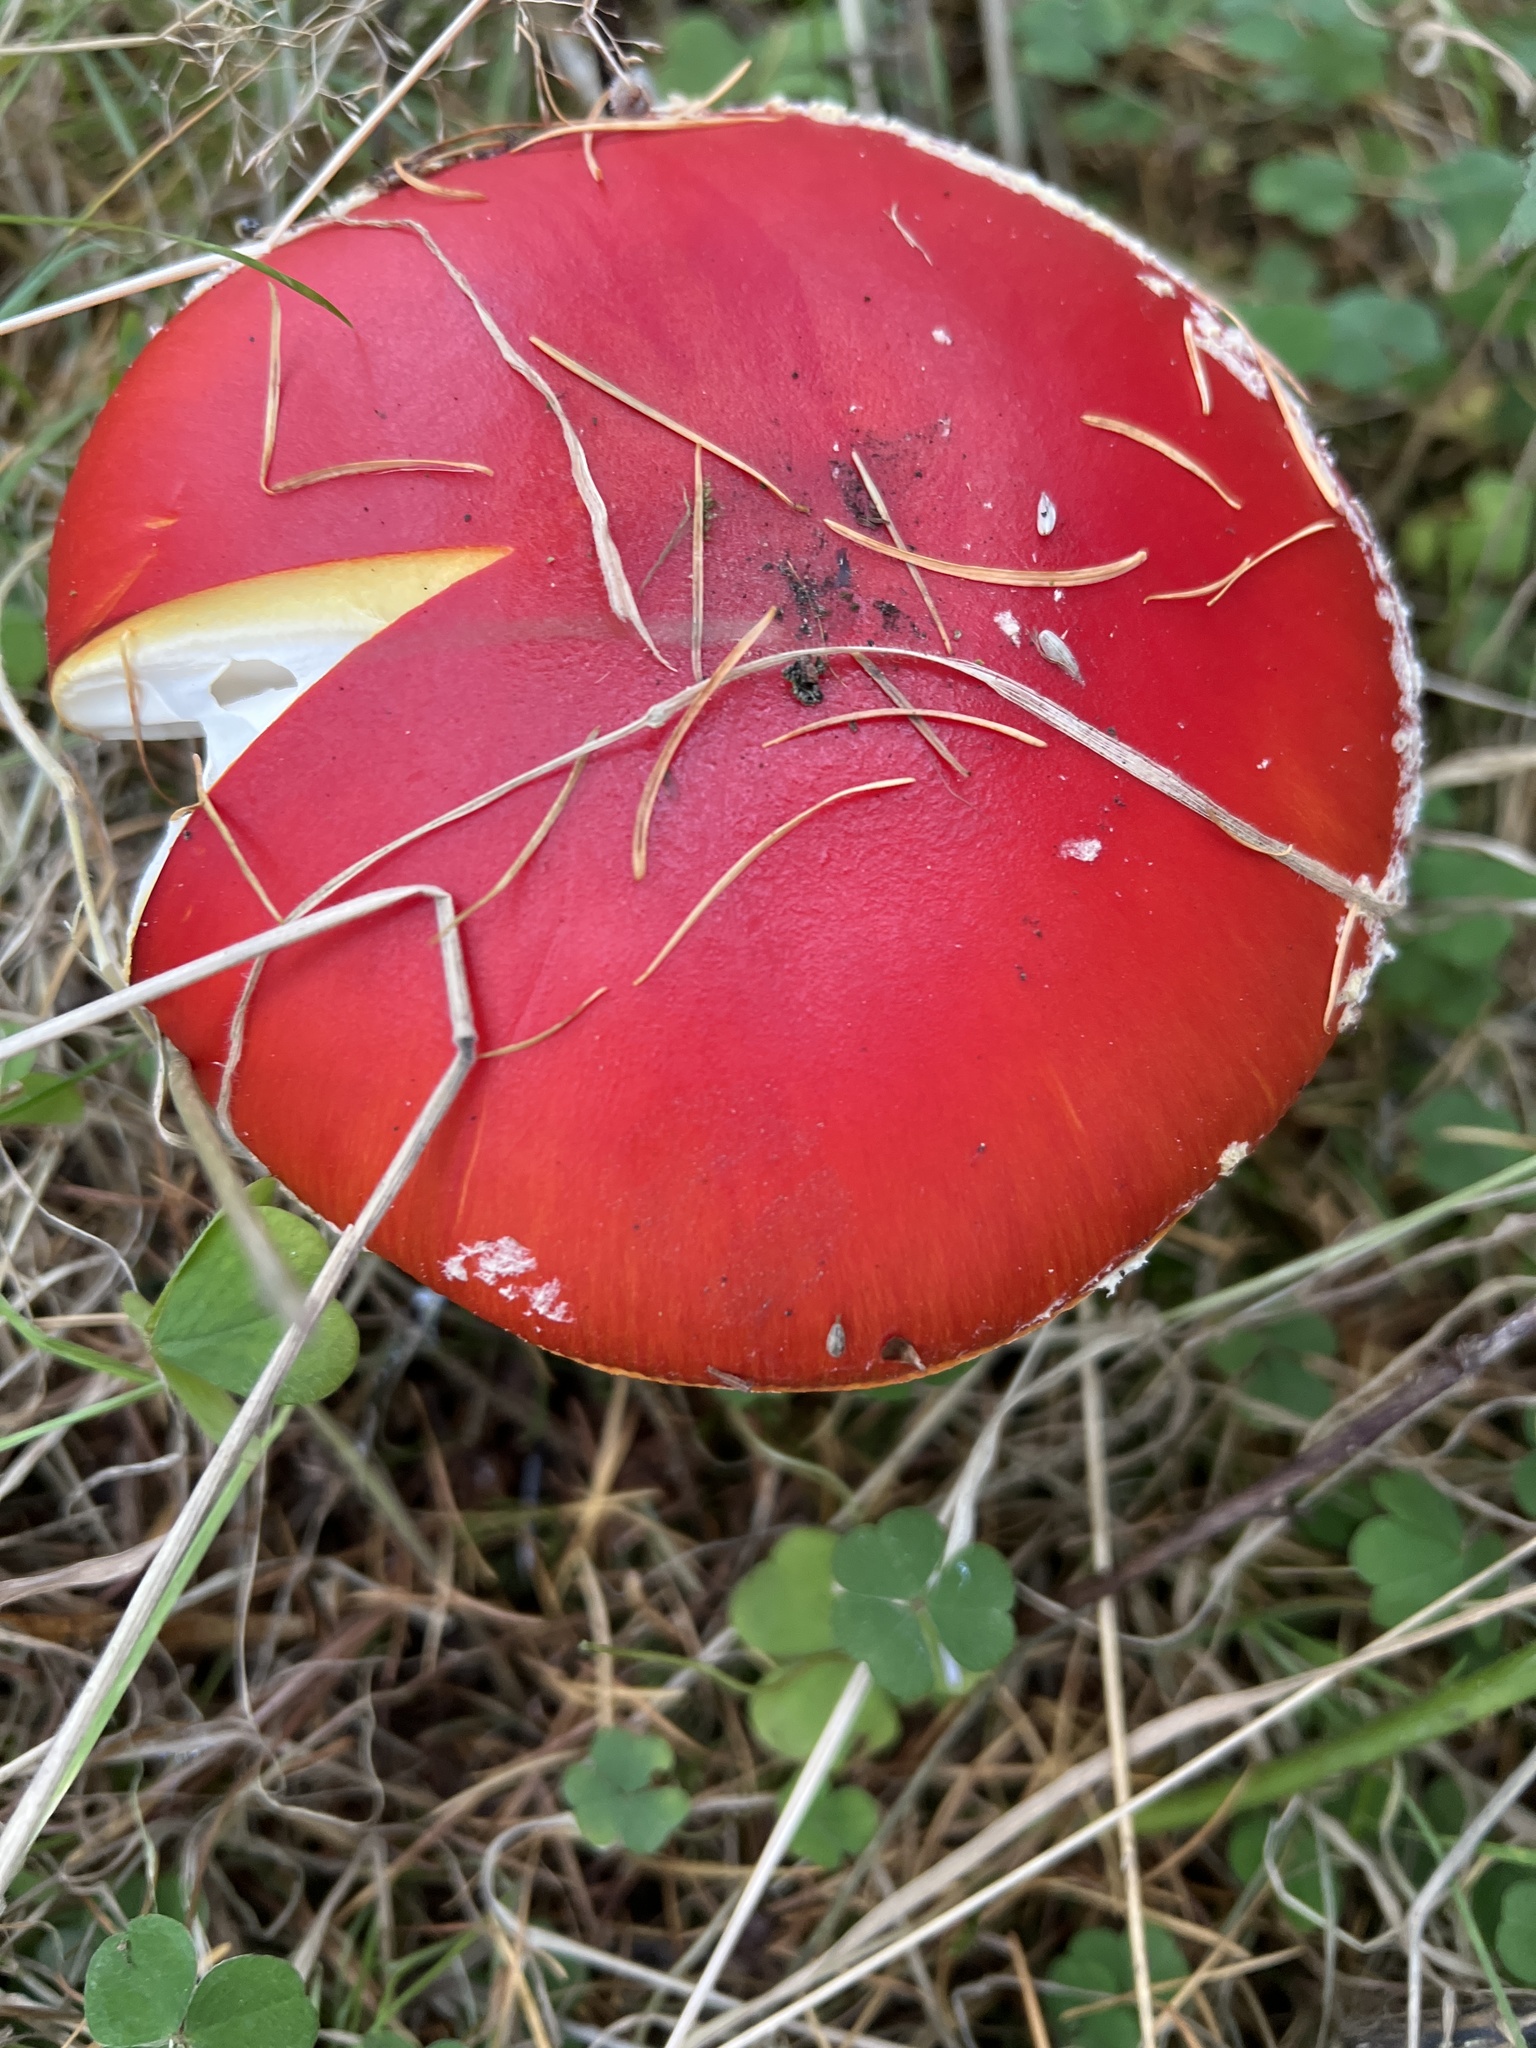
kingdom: Fungi
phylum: Basidiomycota
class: Agaricomycetes
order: Agaricales
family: Amanitaceae
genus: Amanita
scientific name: Amanita muscaria
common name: Fly agaric
